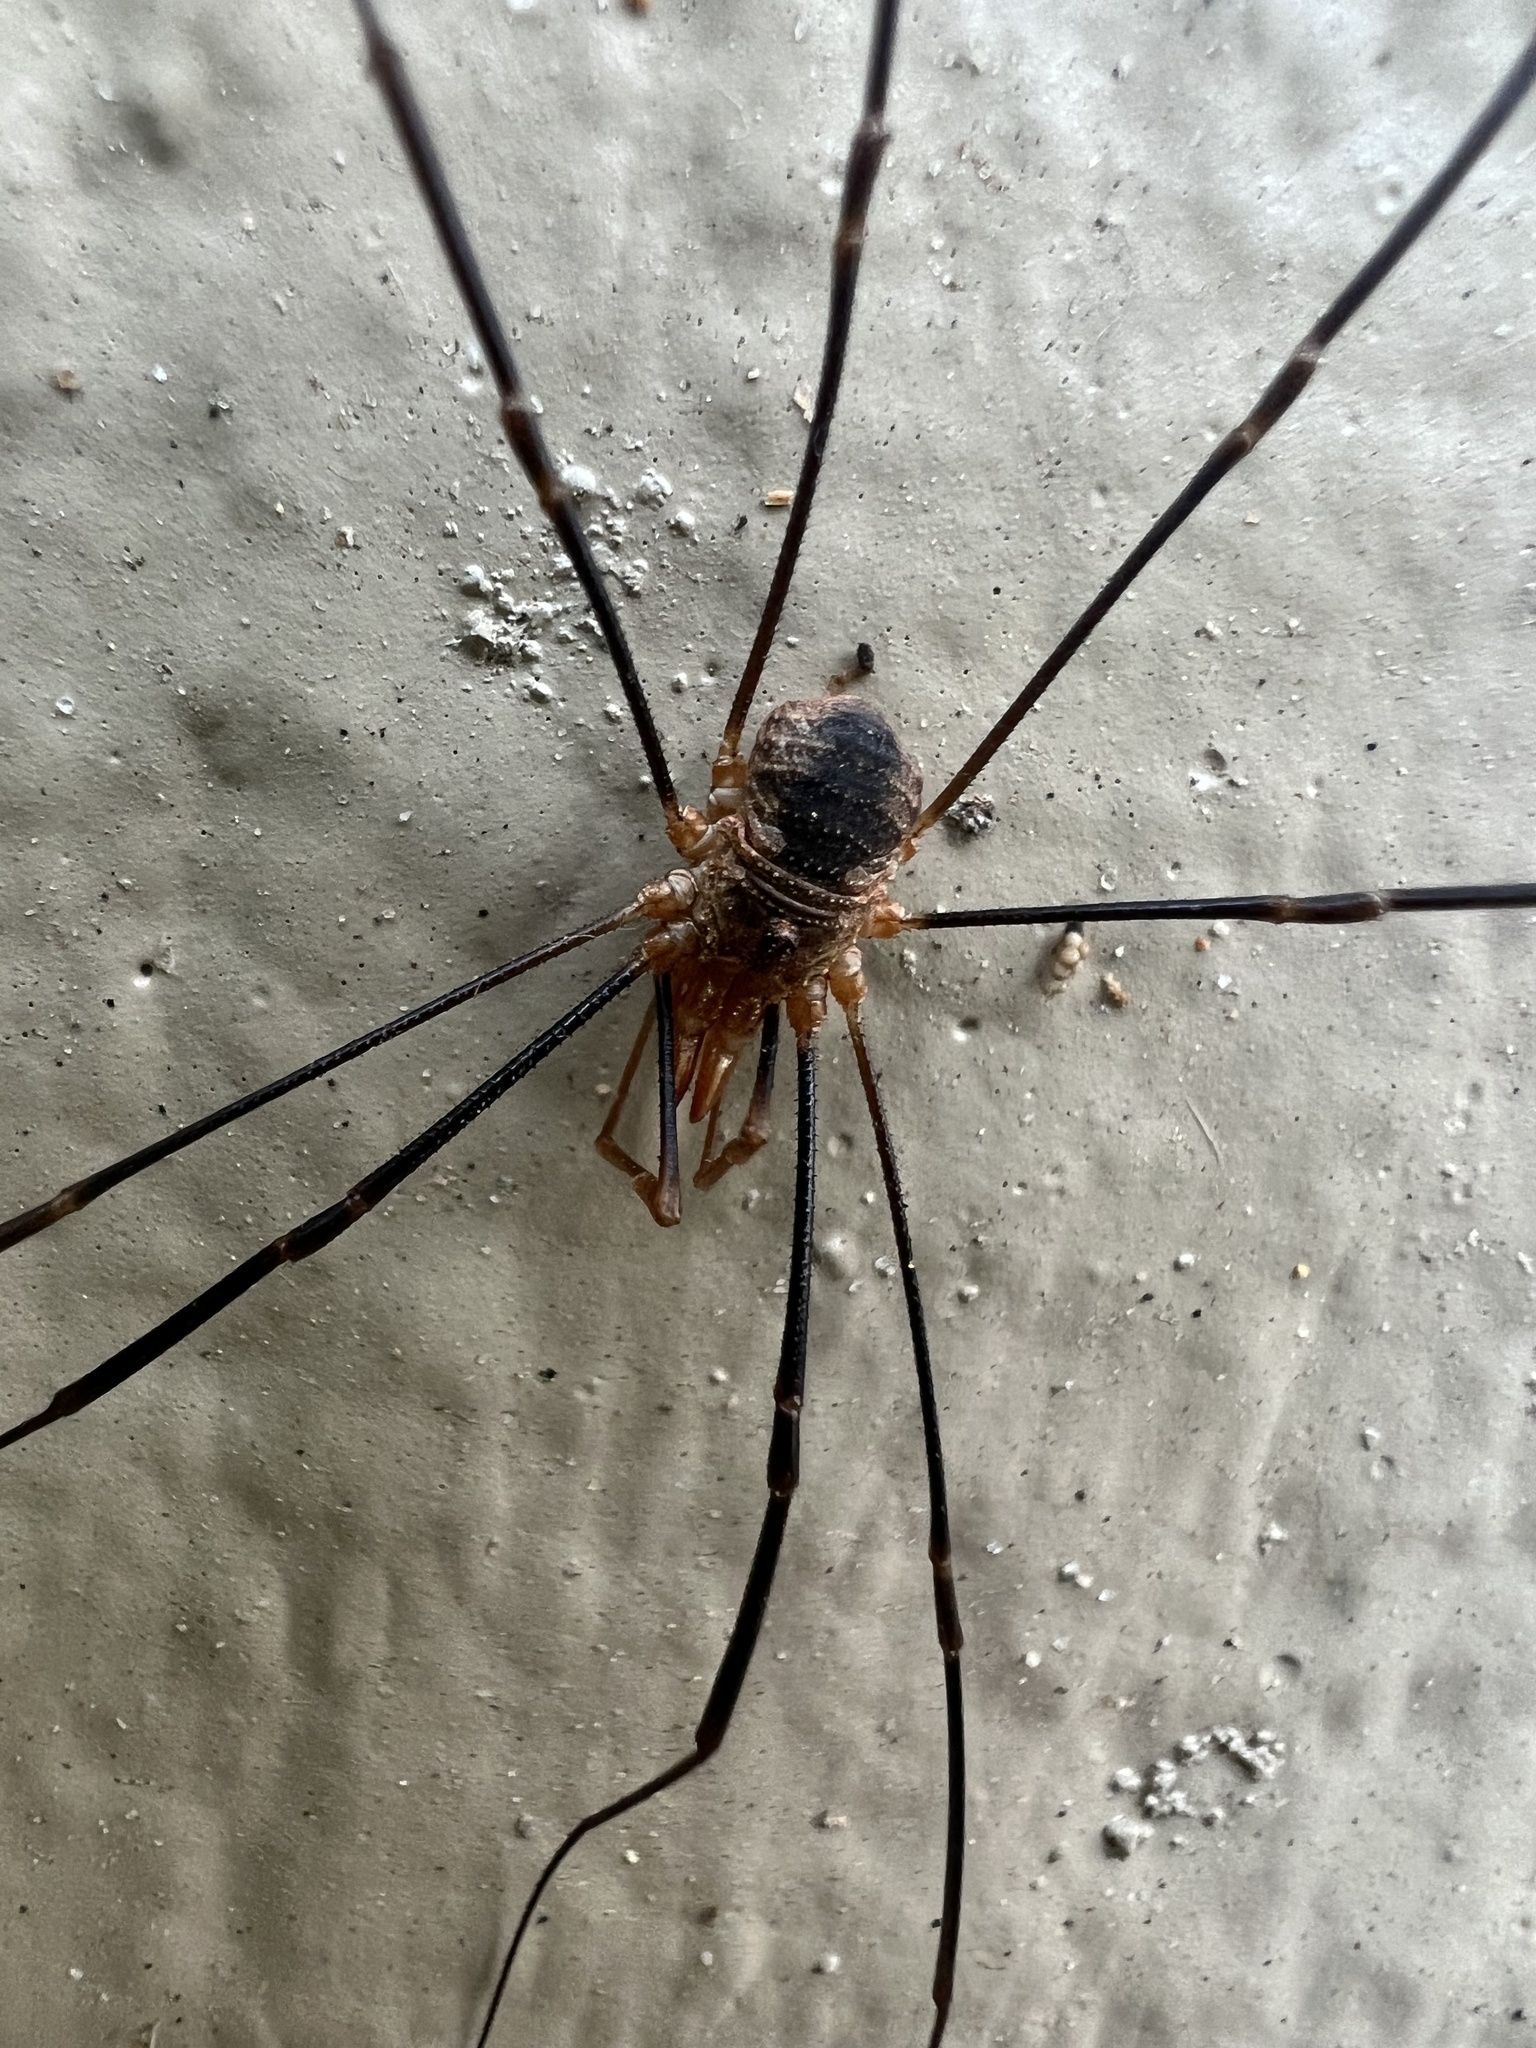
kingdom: Animalia
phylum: Arthropoda
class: Arachnida
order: Opiliones
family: Phalangiidae
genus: Phalangium
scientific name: Phalangium opilio
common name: Daddy longleg
